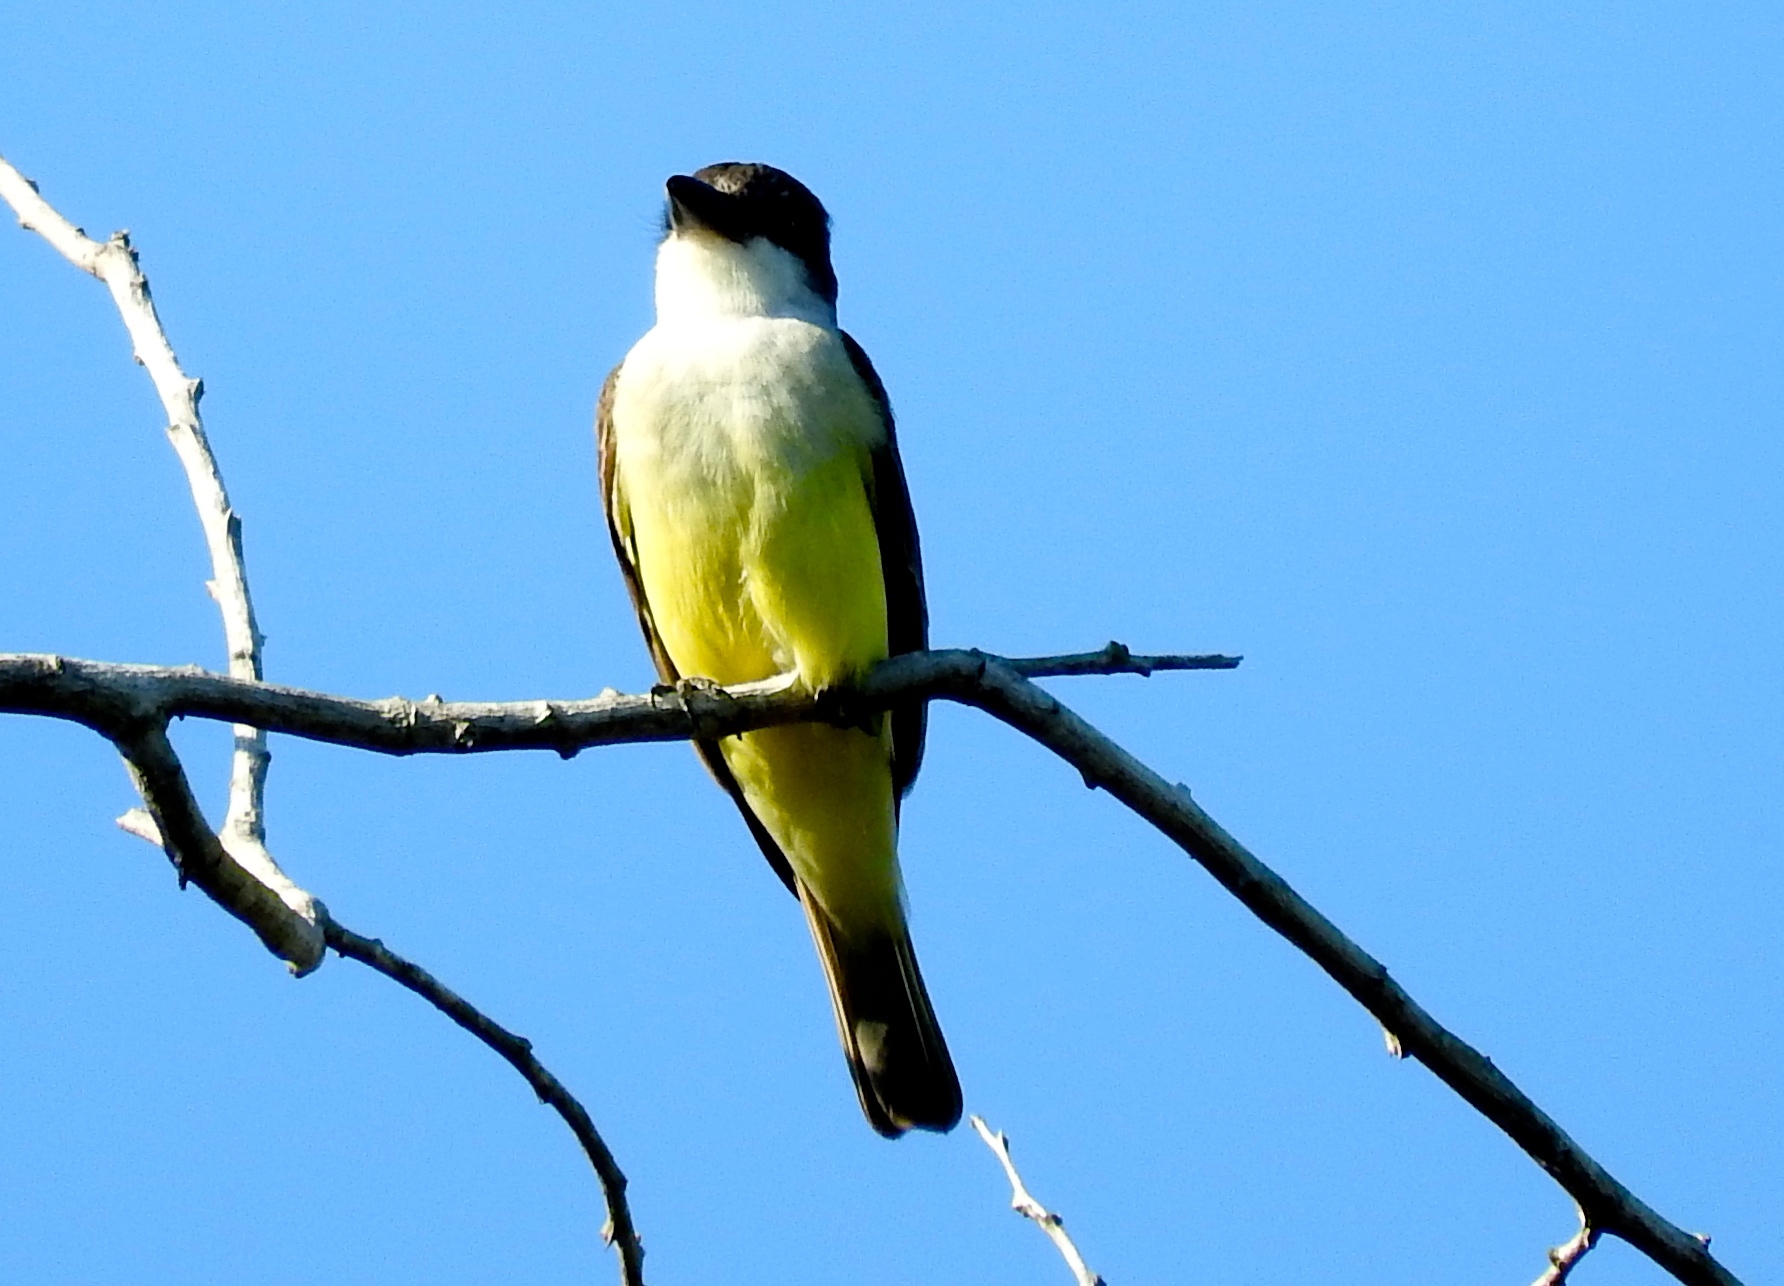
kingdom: Animalia
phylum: Chordata
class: Aves
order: Passeriformes
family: Tyrannidae
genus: Tyrannus
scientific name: Tyrannus crassirostris
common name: Thick-billed kingbird
